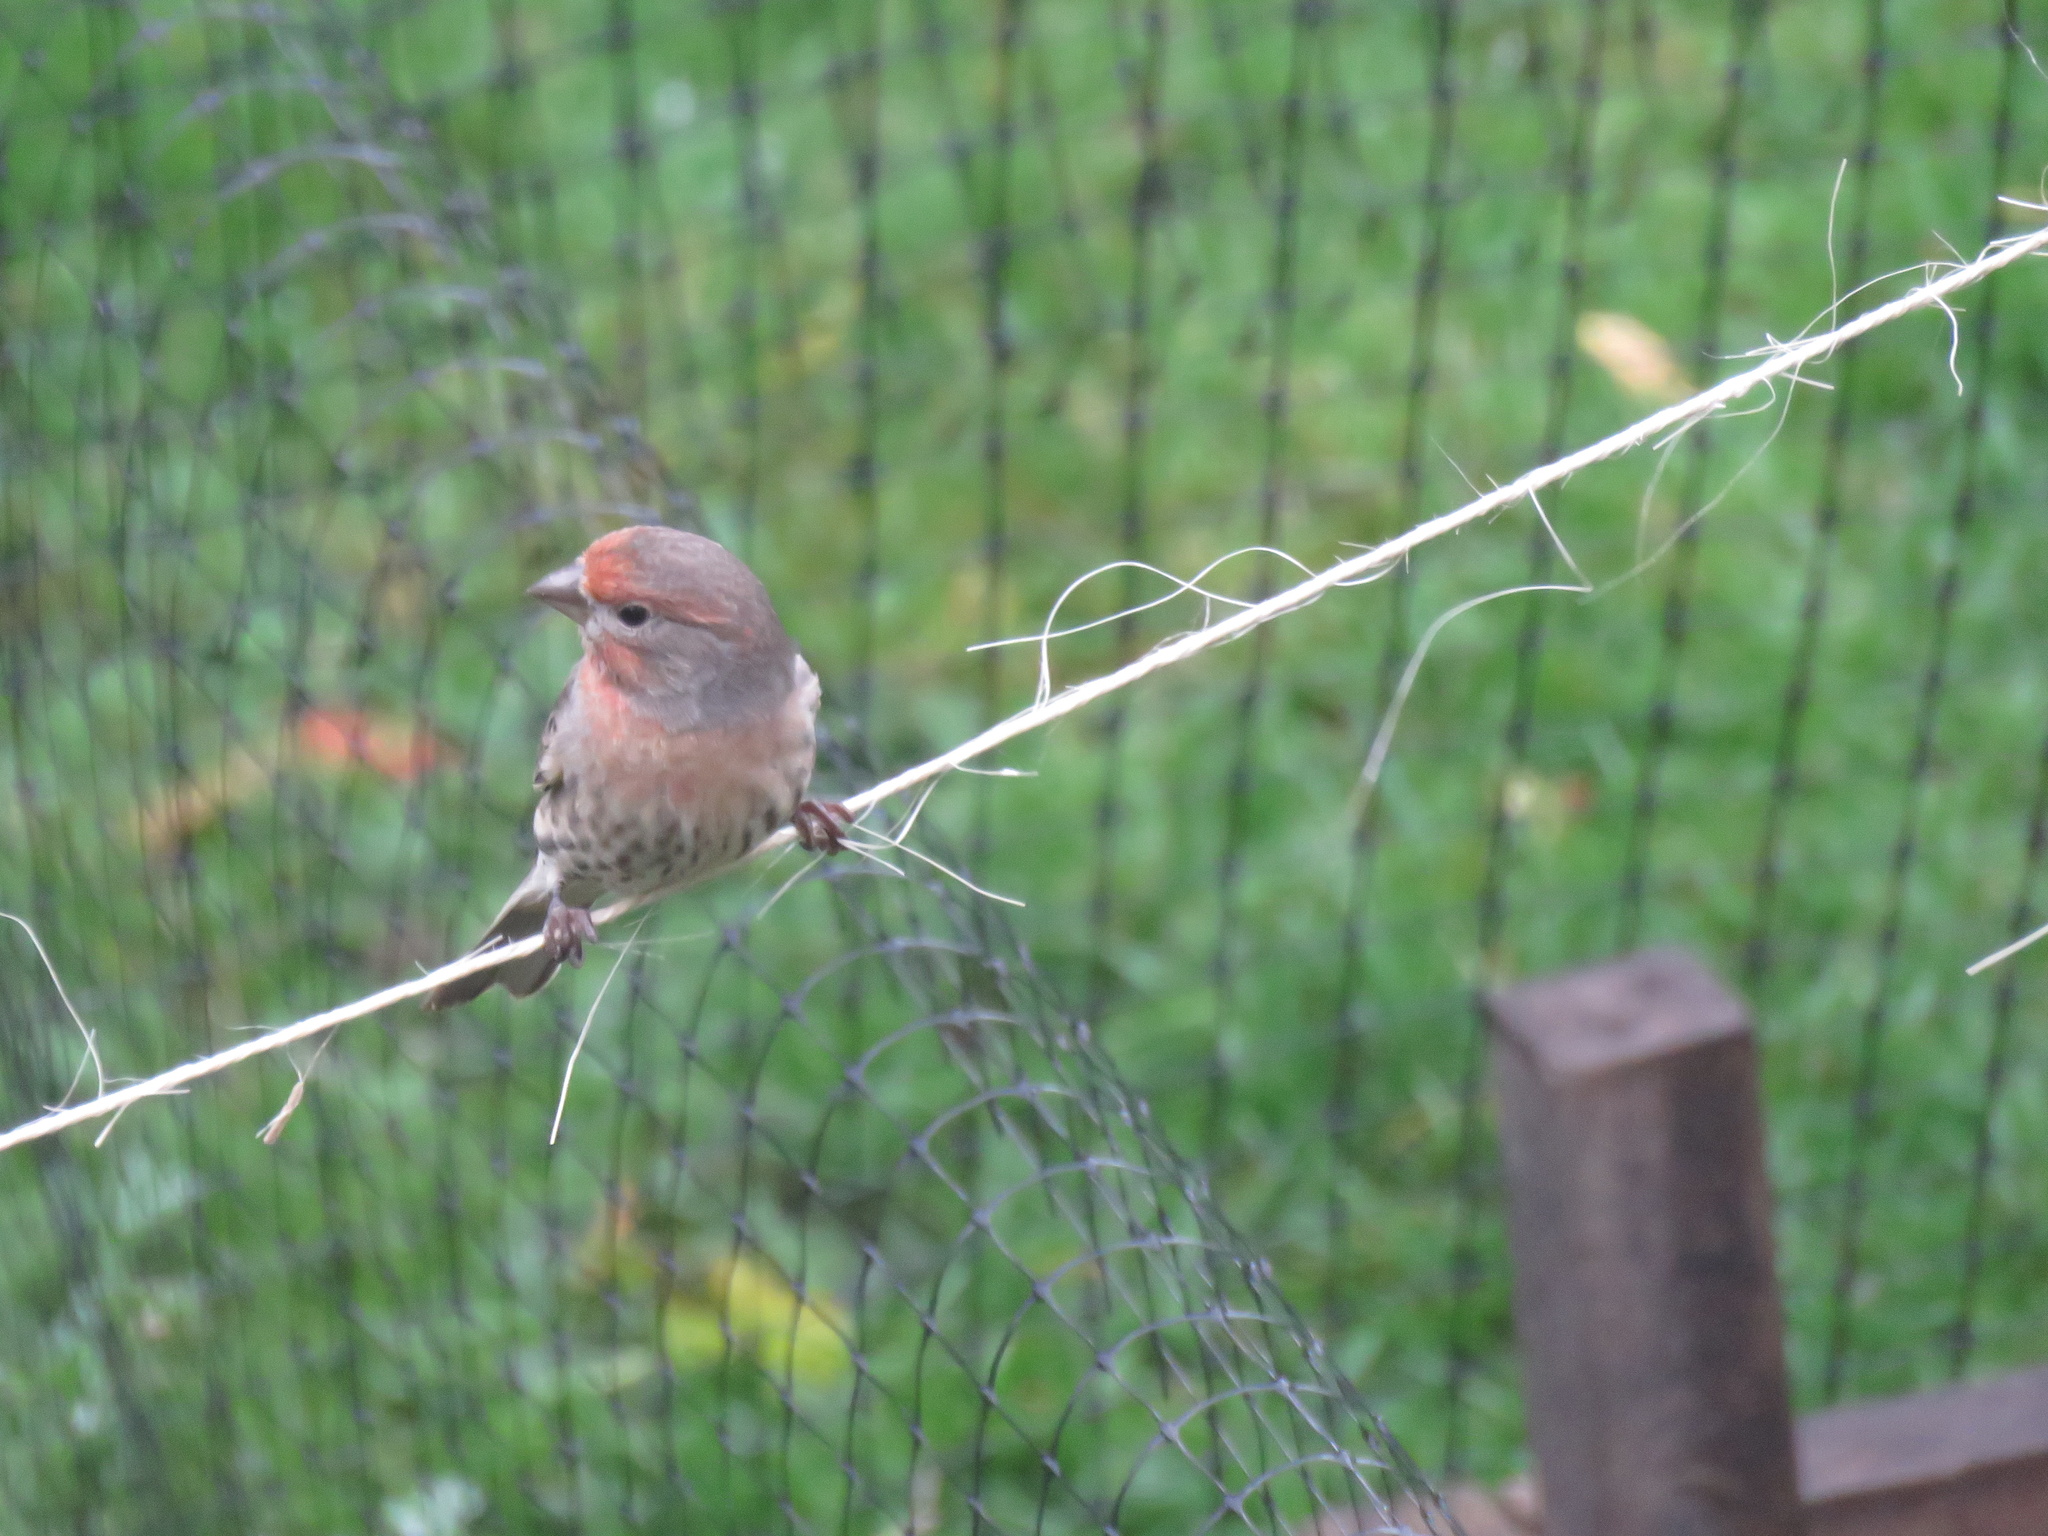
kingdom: Animalia
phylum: Chordata
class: Aves
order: Passeriformes
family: Fringillidae
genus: Haemorhous
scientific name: Haemorhous mexicanus
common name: House finch
